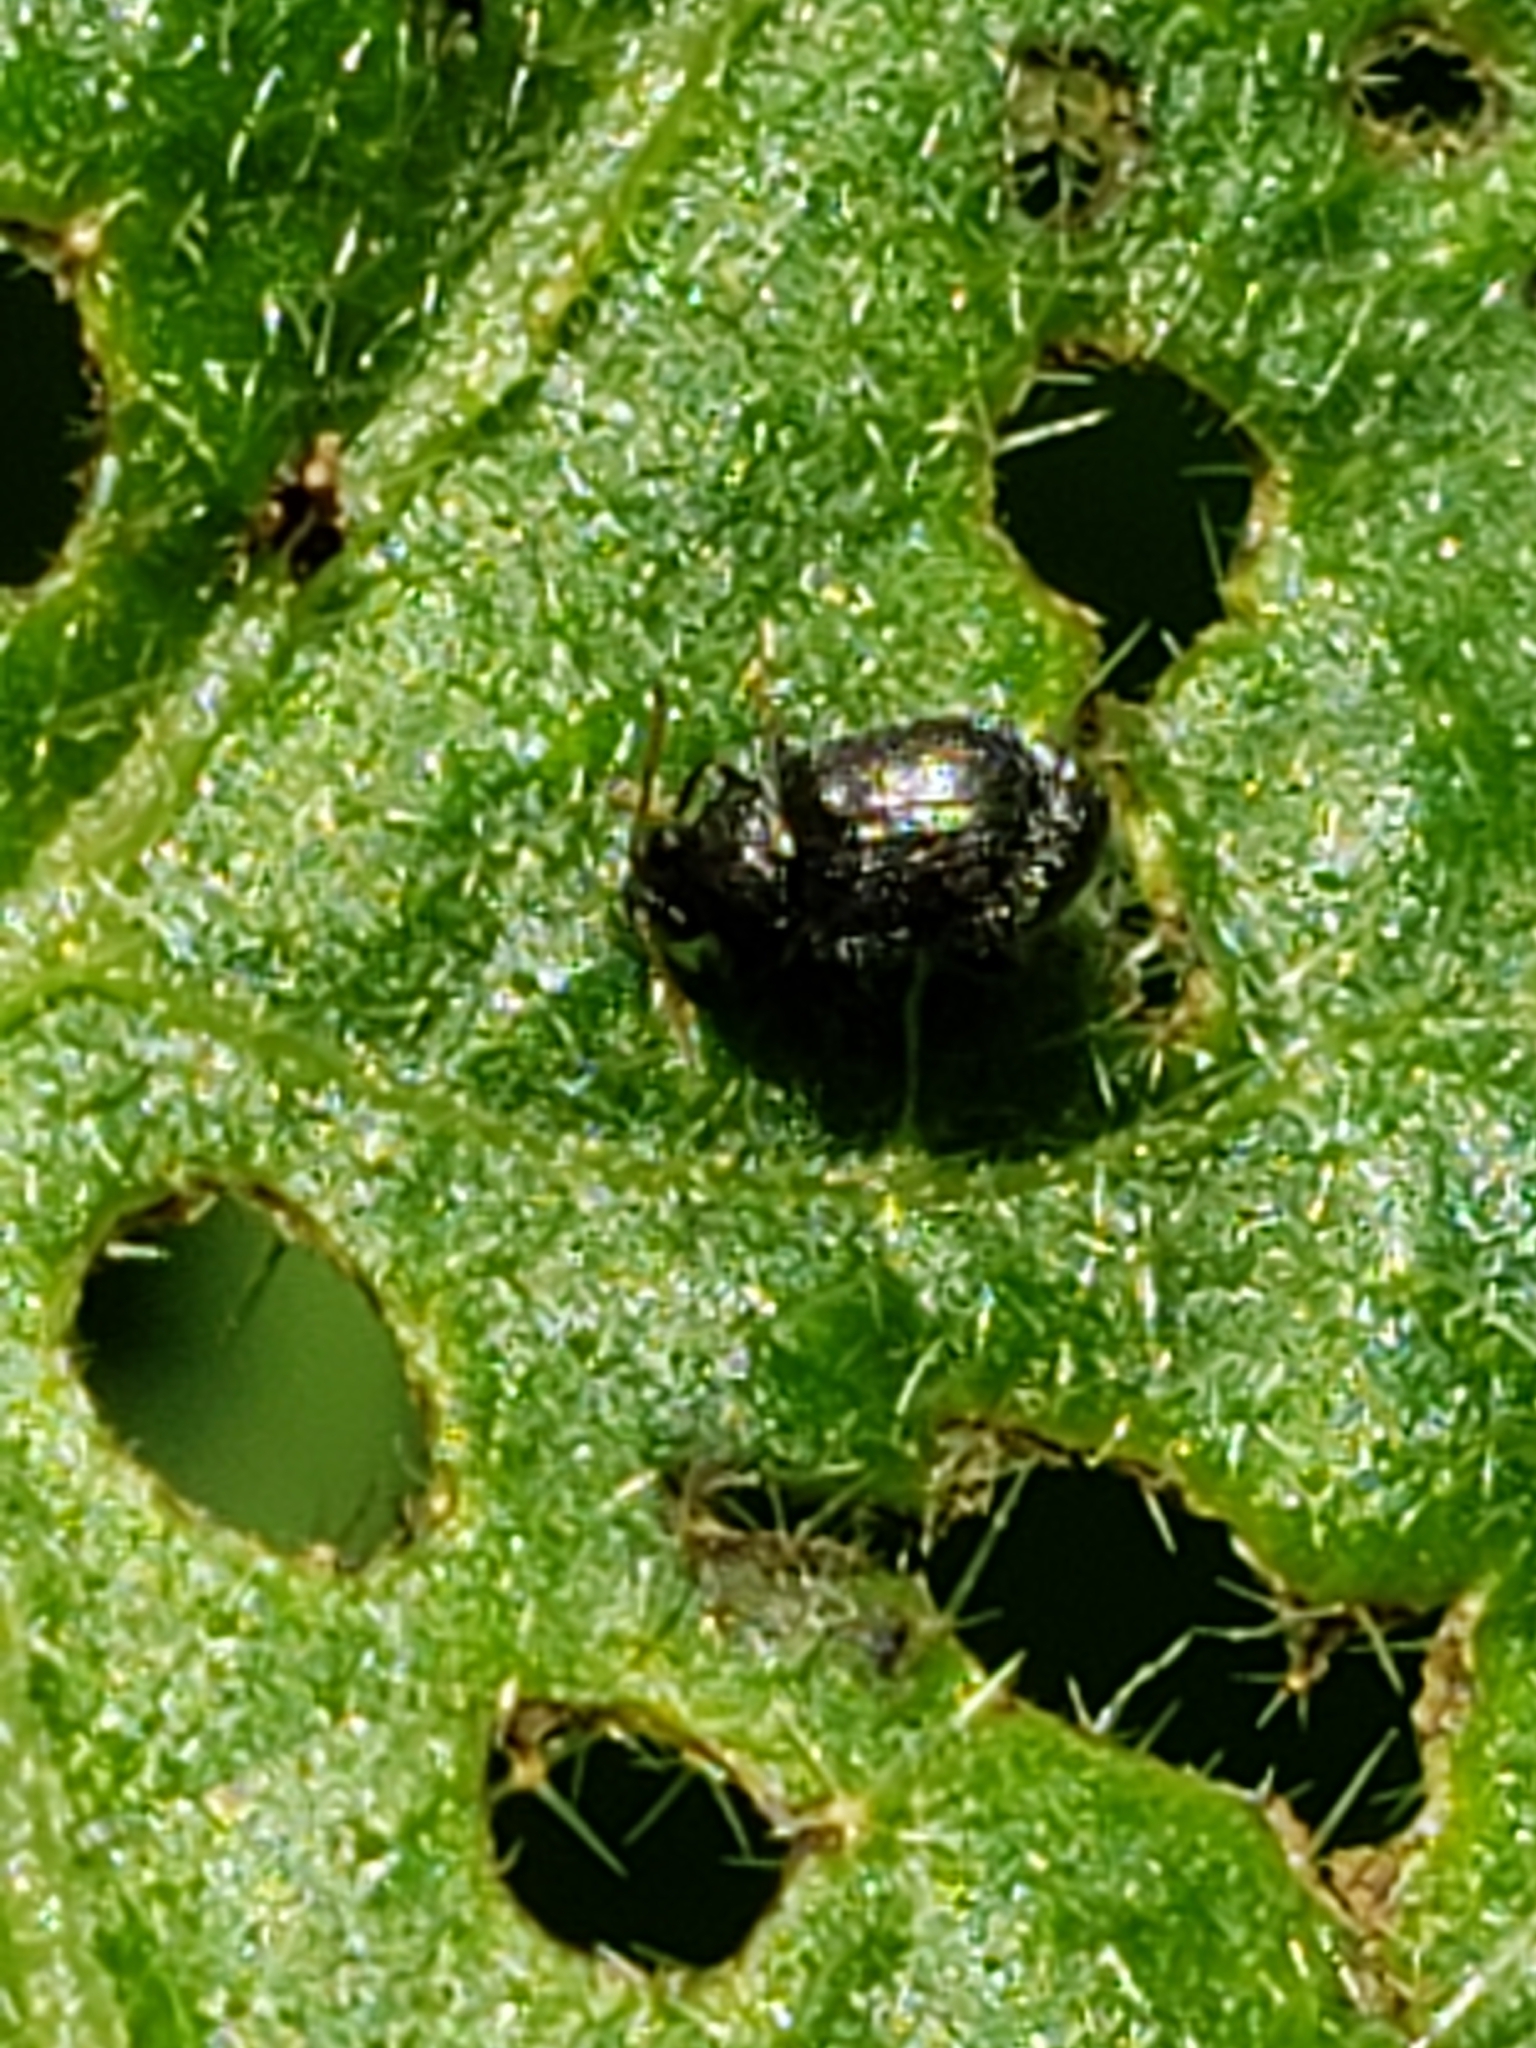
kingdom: Animalia
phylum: Arthropoda
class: Insecta
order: Coleoptera
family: Chrysomelidae
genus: Epitrix
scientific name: Epitrix fuscula
